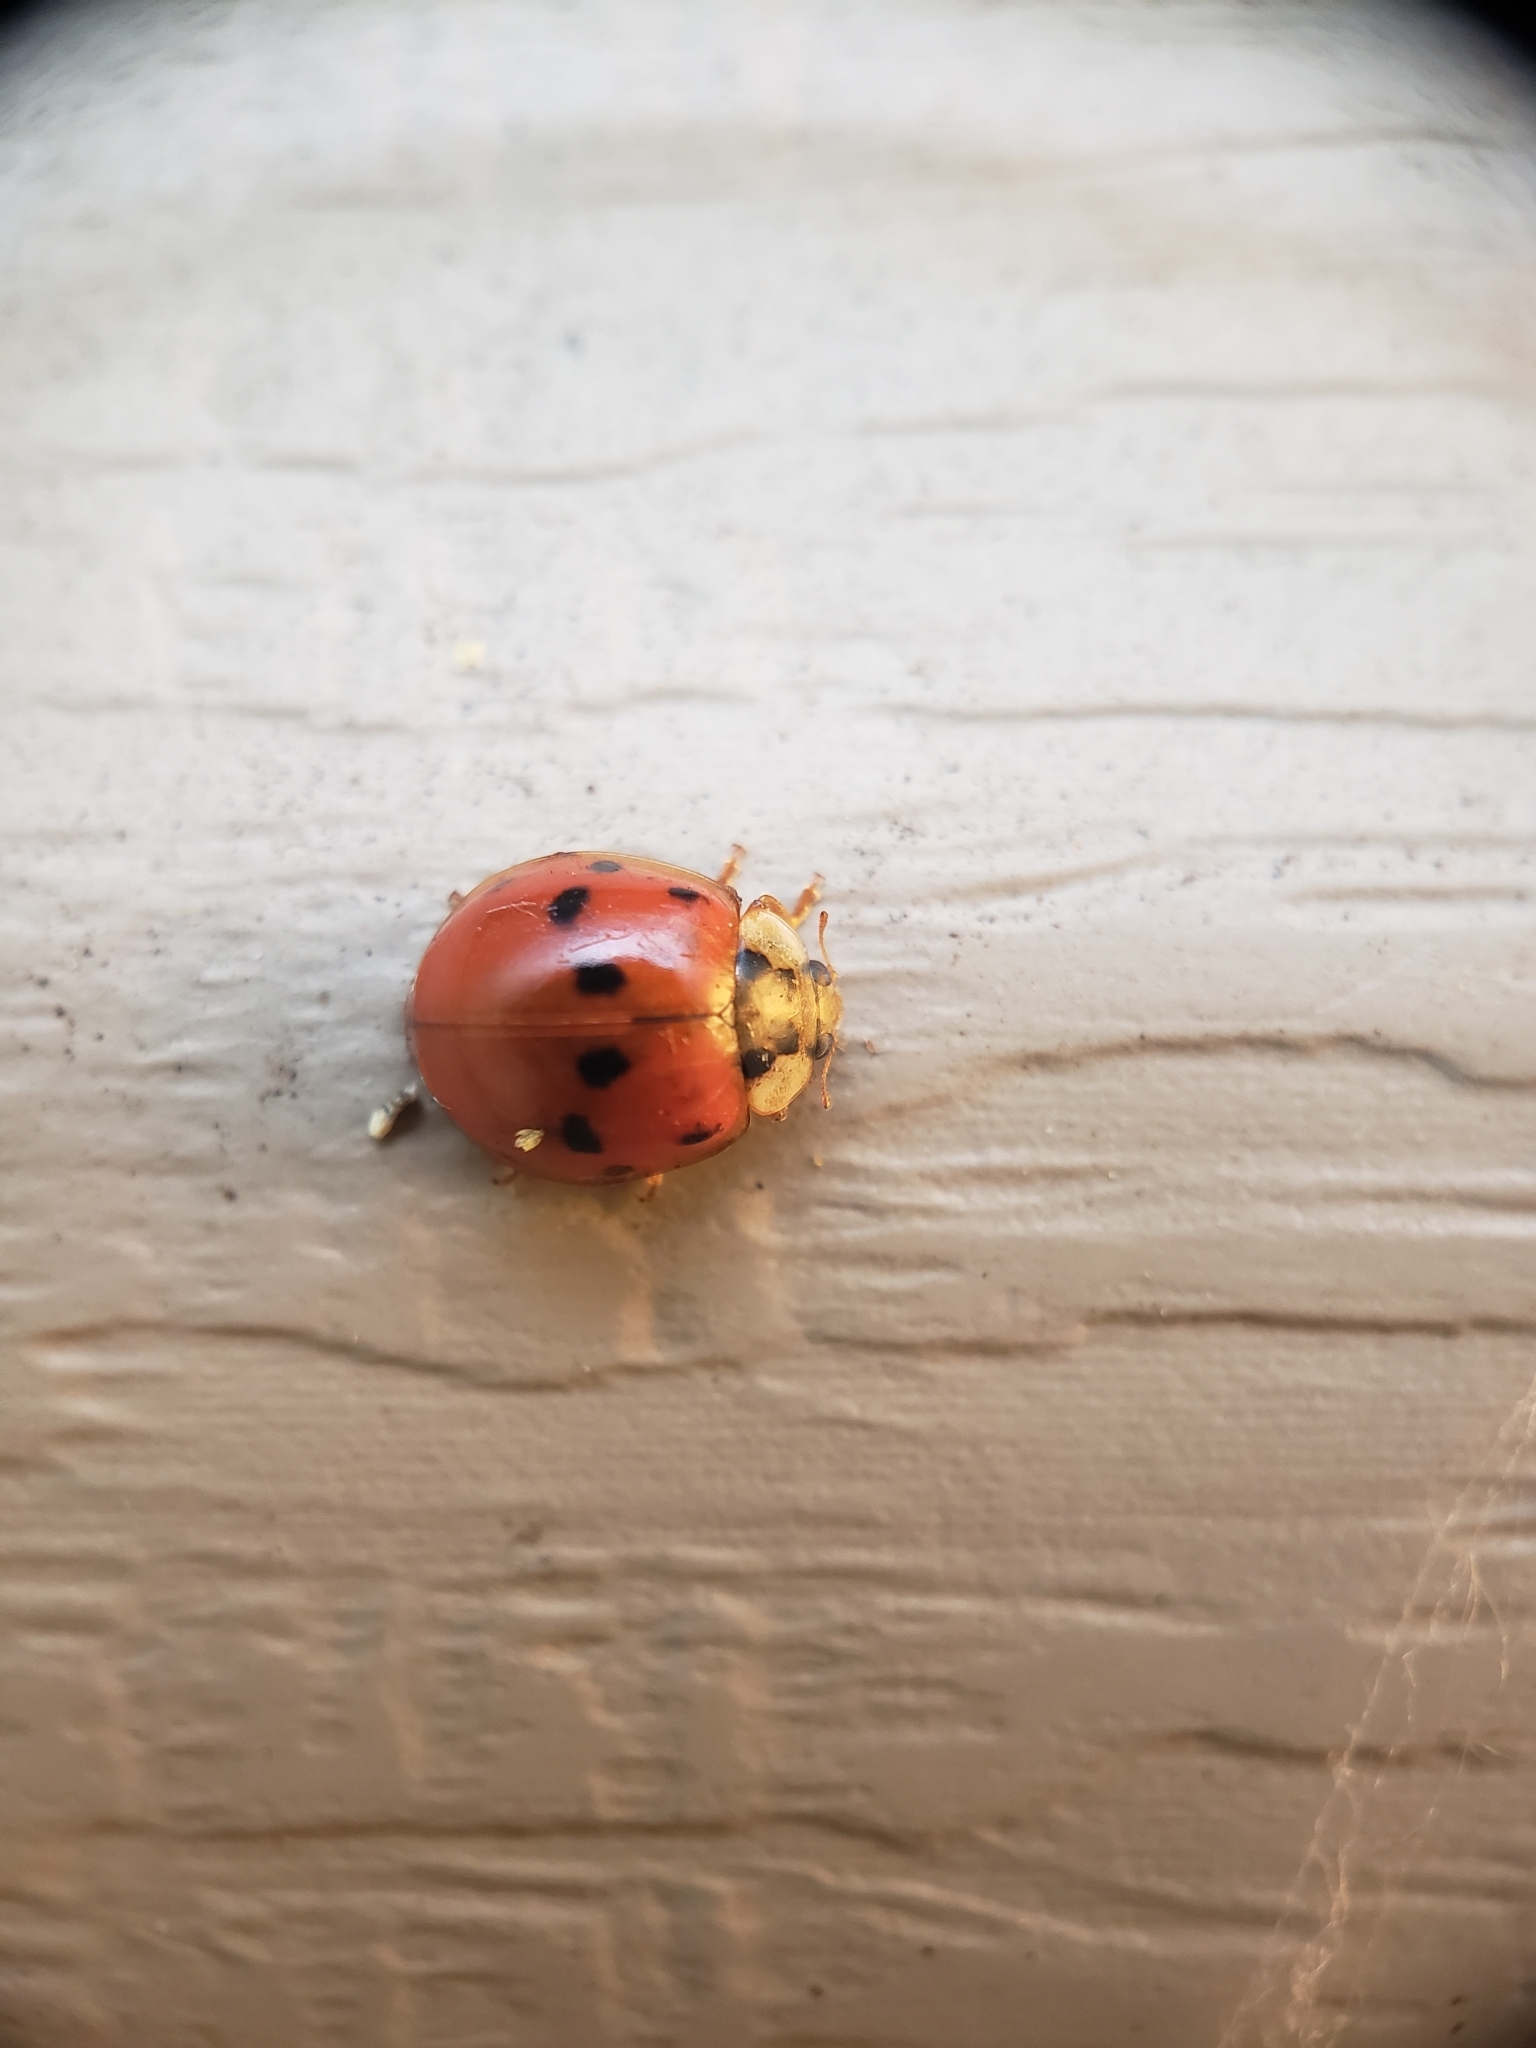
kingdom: Animalia
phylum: Arthropoda
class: Insecta
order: Coleoptera
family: Coccinellidae
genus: Harmonia
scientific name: Harmonia axyridis
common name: Harlequin ladybird
